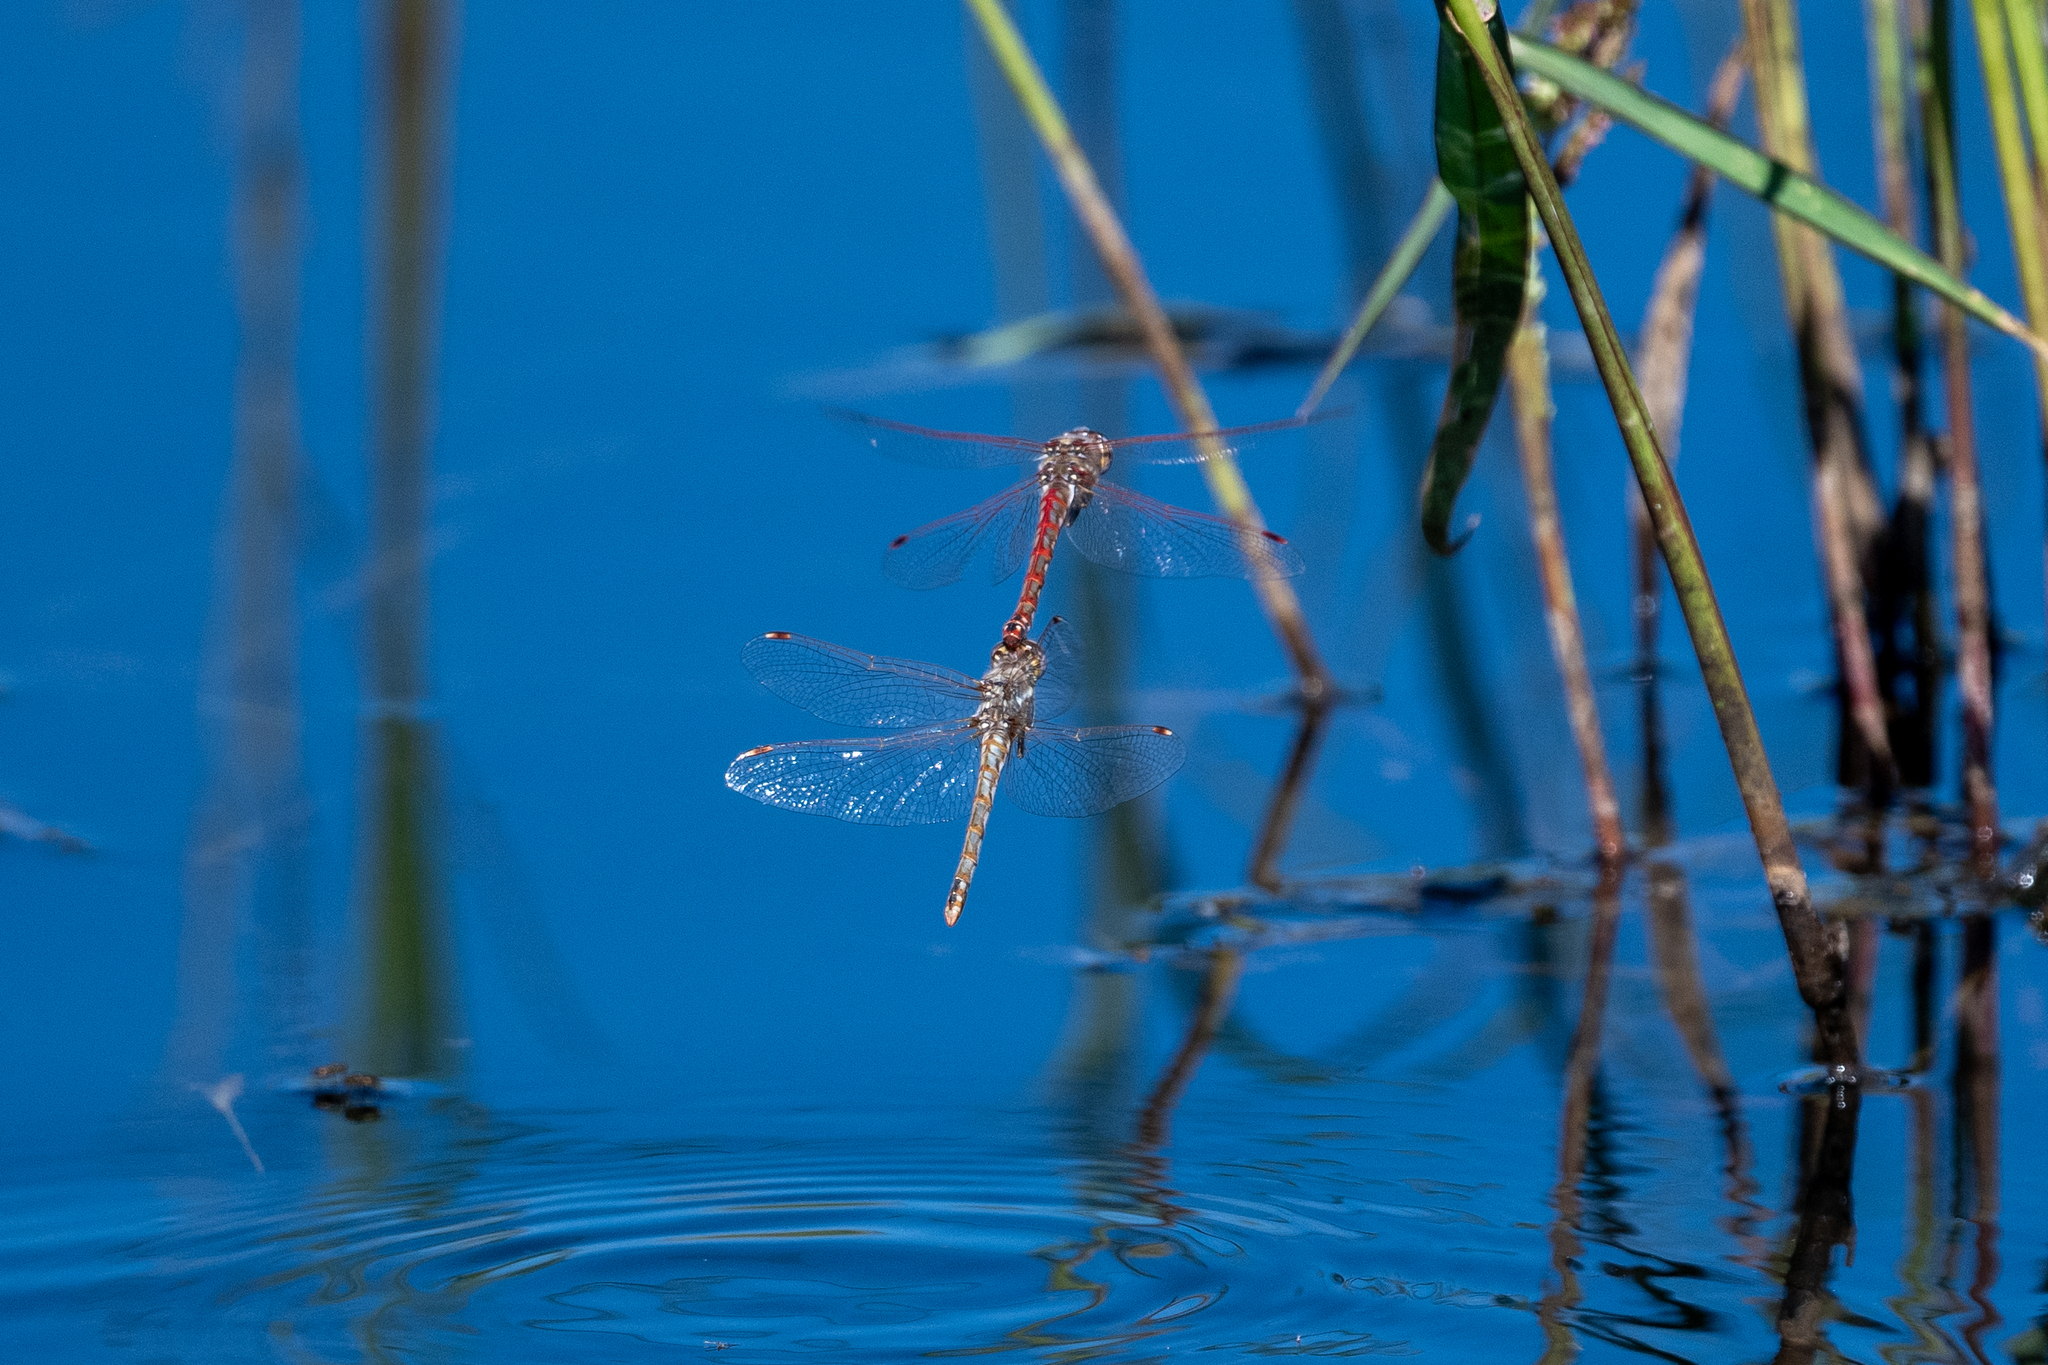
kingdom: Animalia
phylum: Arthropoda
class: Insecta
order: Odonata
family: Libellulidae
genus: Sympetrum
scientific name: Sympetrum corruptum
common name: Variegated meadowhawk
